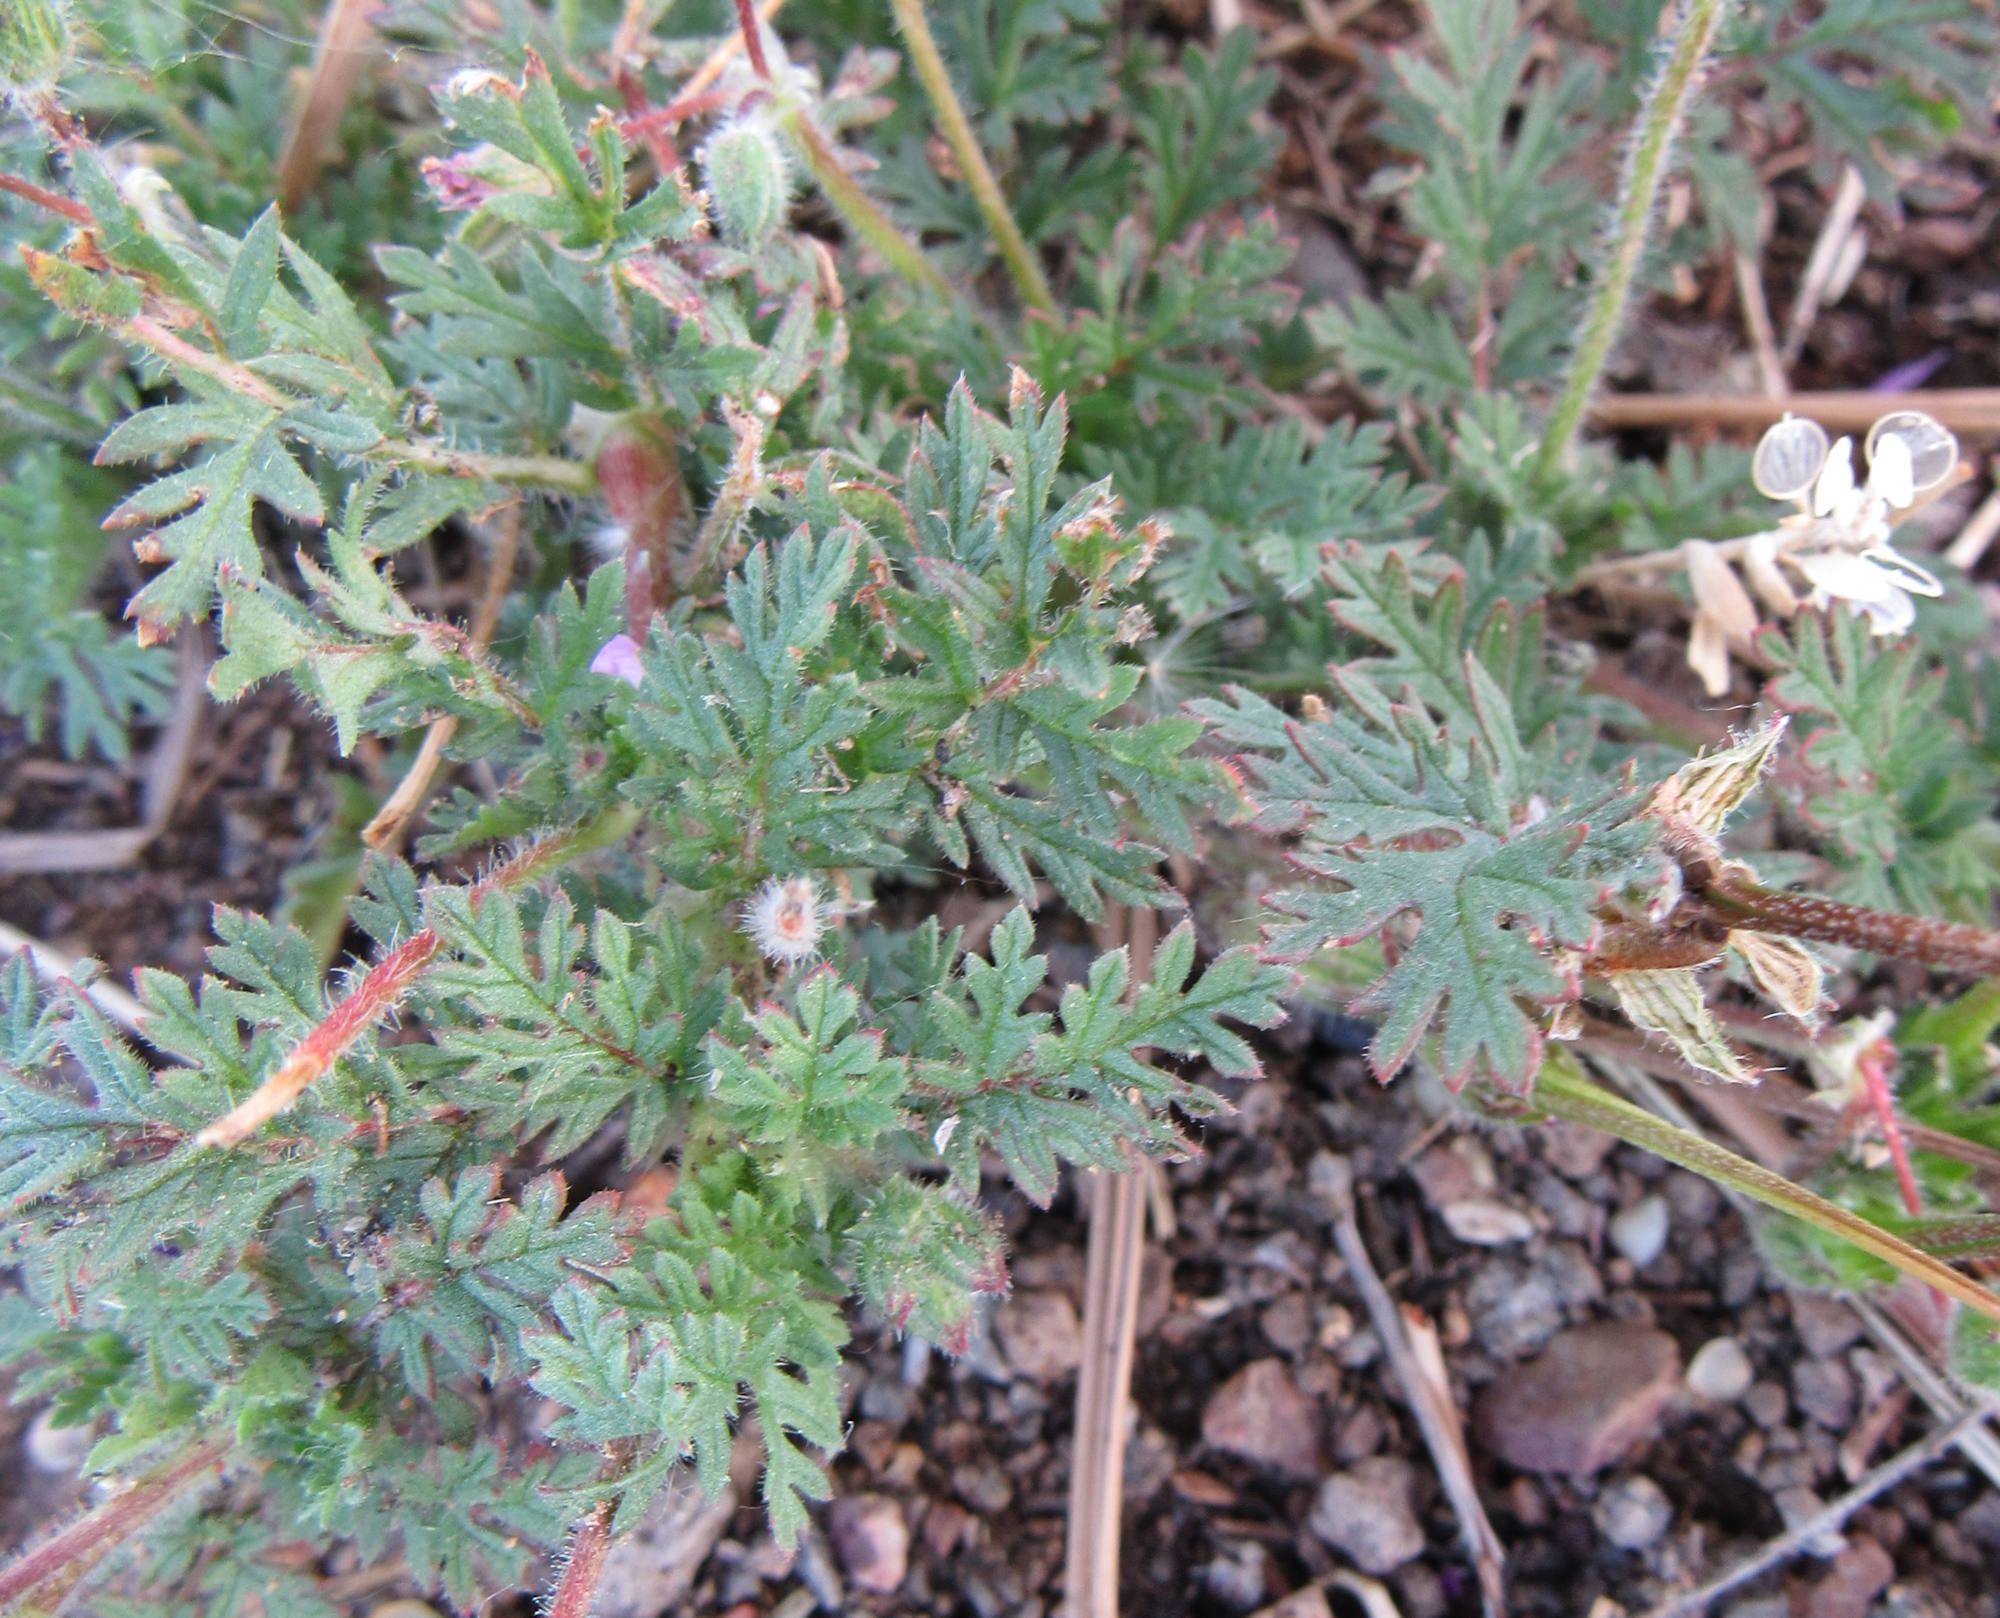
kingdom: Plantae
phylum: Tracheophyta
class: Magnoliopsida
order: Geraniales
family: Geraniaceae
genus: Erodium
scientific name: Erodium cicutarium
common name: Common stork's-bill
